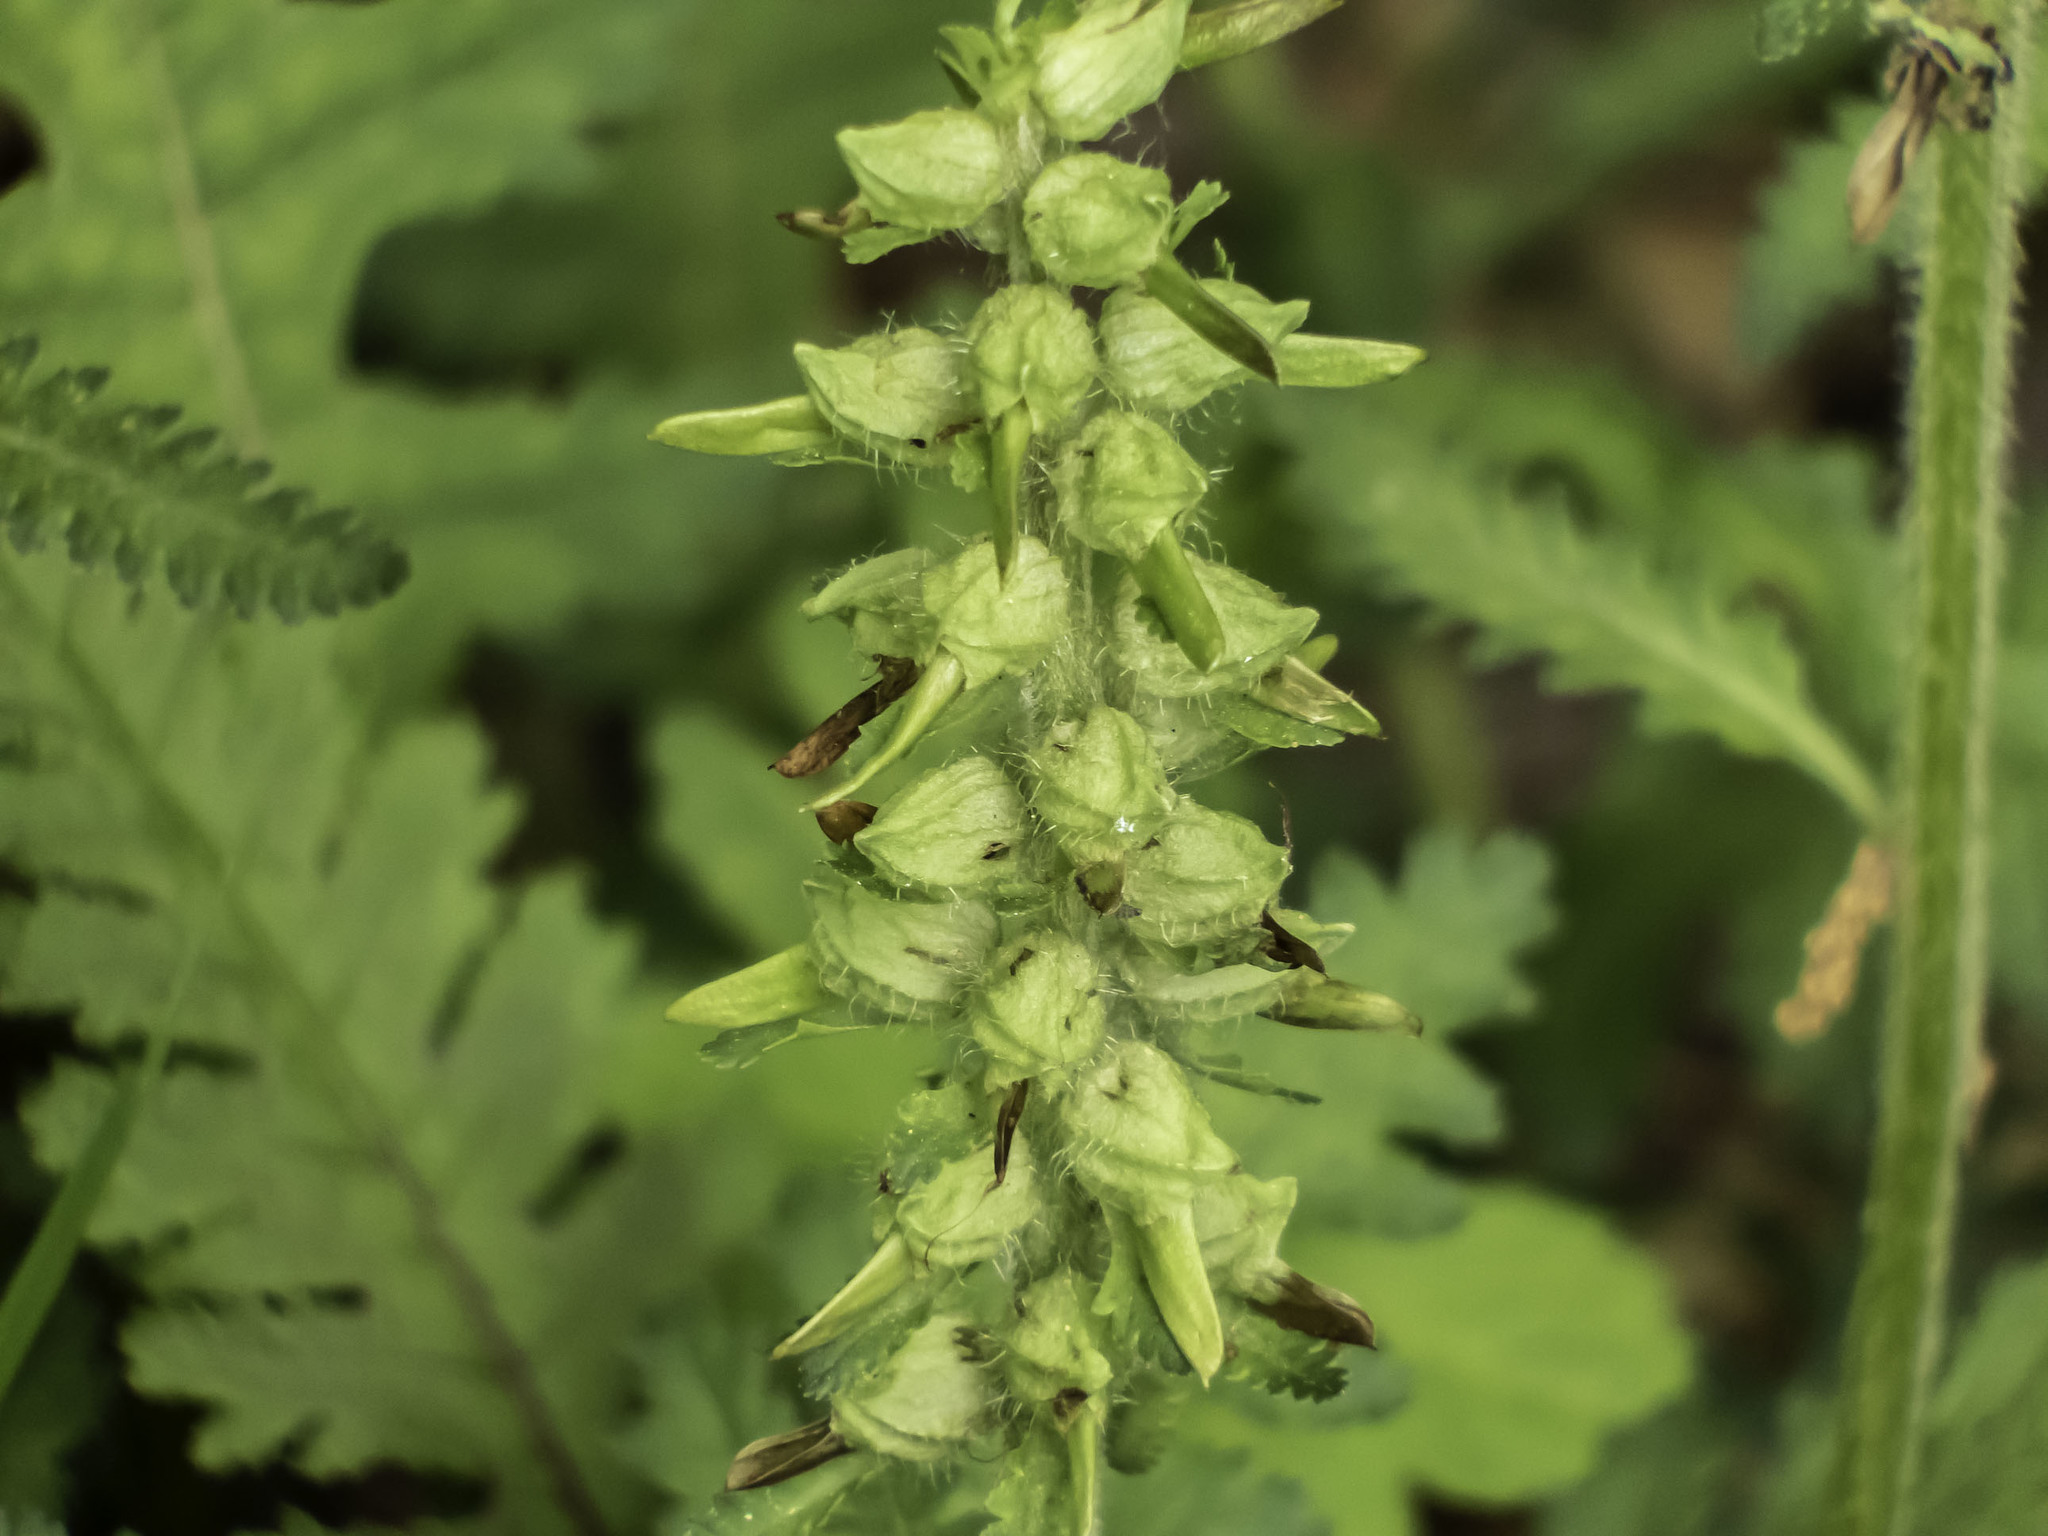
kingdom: Plantae
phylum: Tracheophyta
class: Magnoliopsida
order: Lamiales
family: Orobanchaceae
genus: Pedicularis
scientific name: Pedicularis canadensis
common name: Early lousewort
